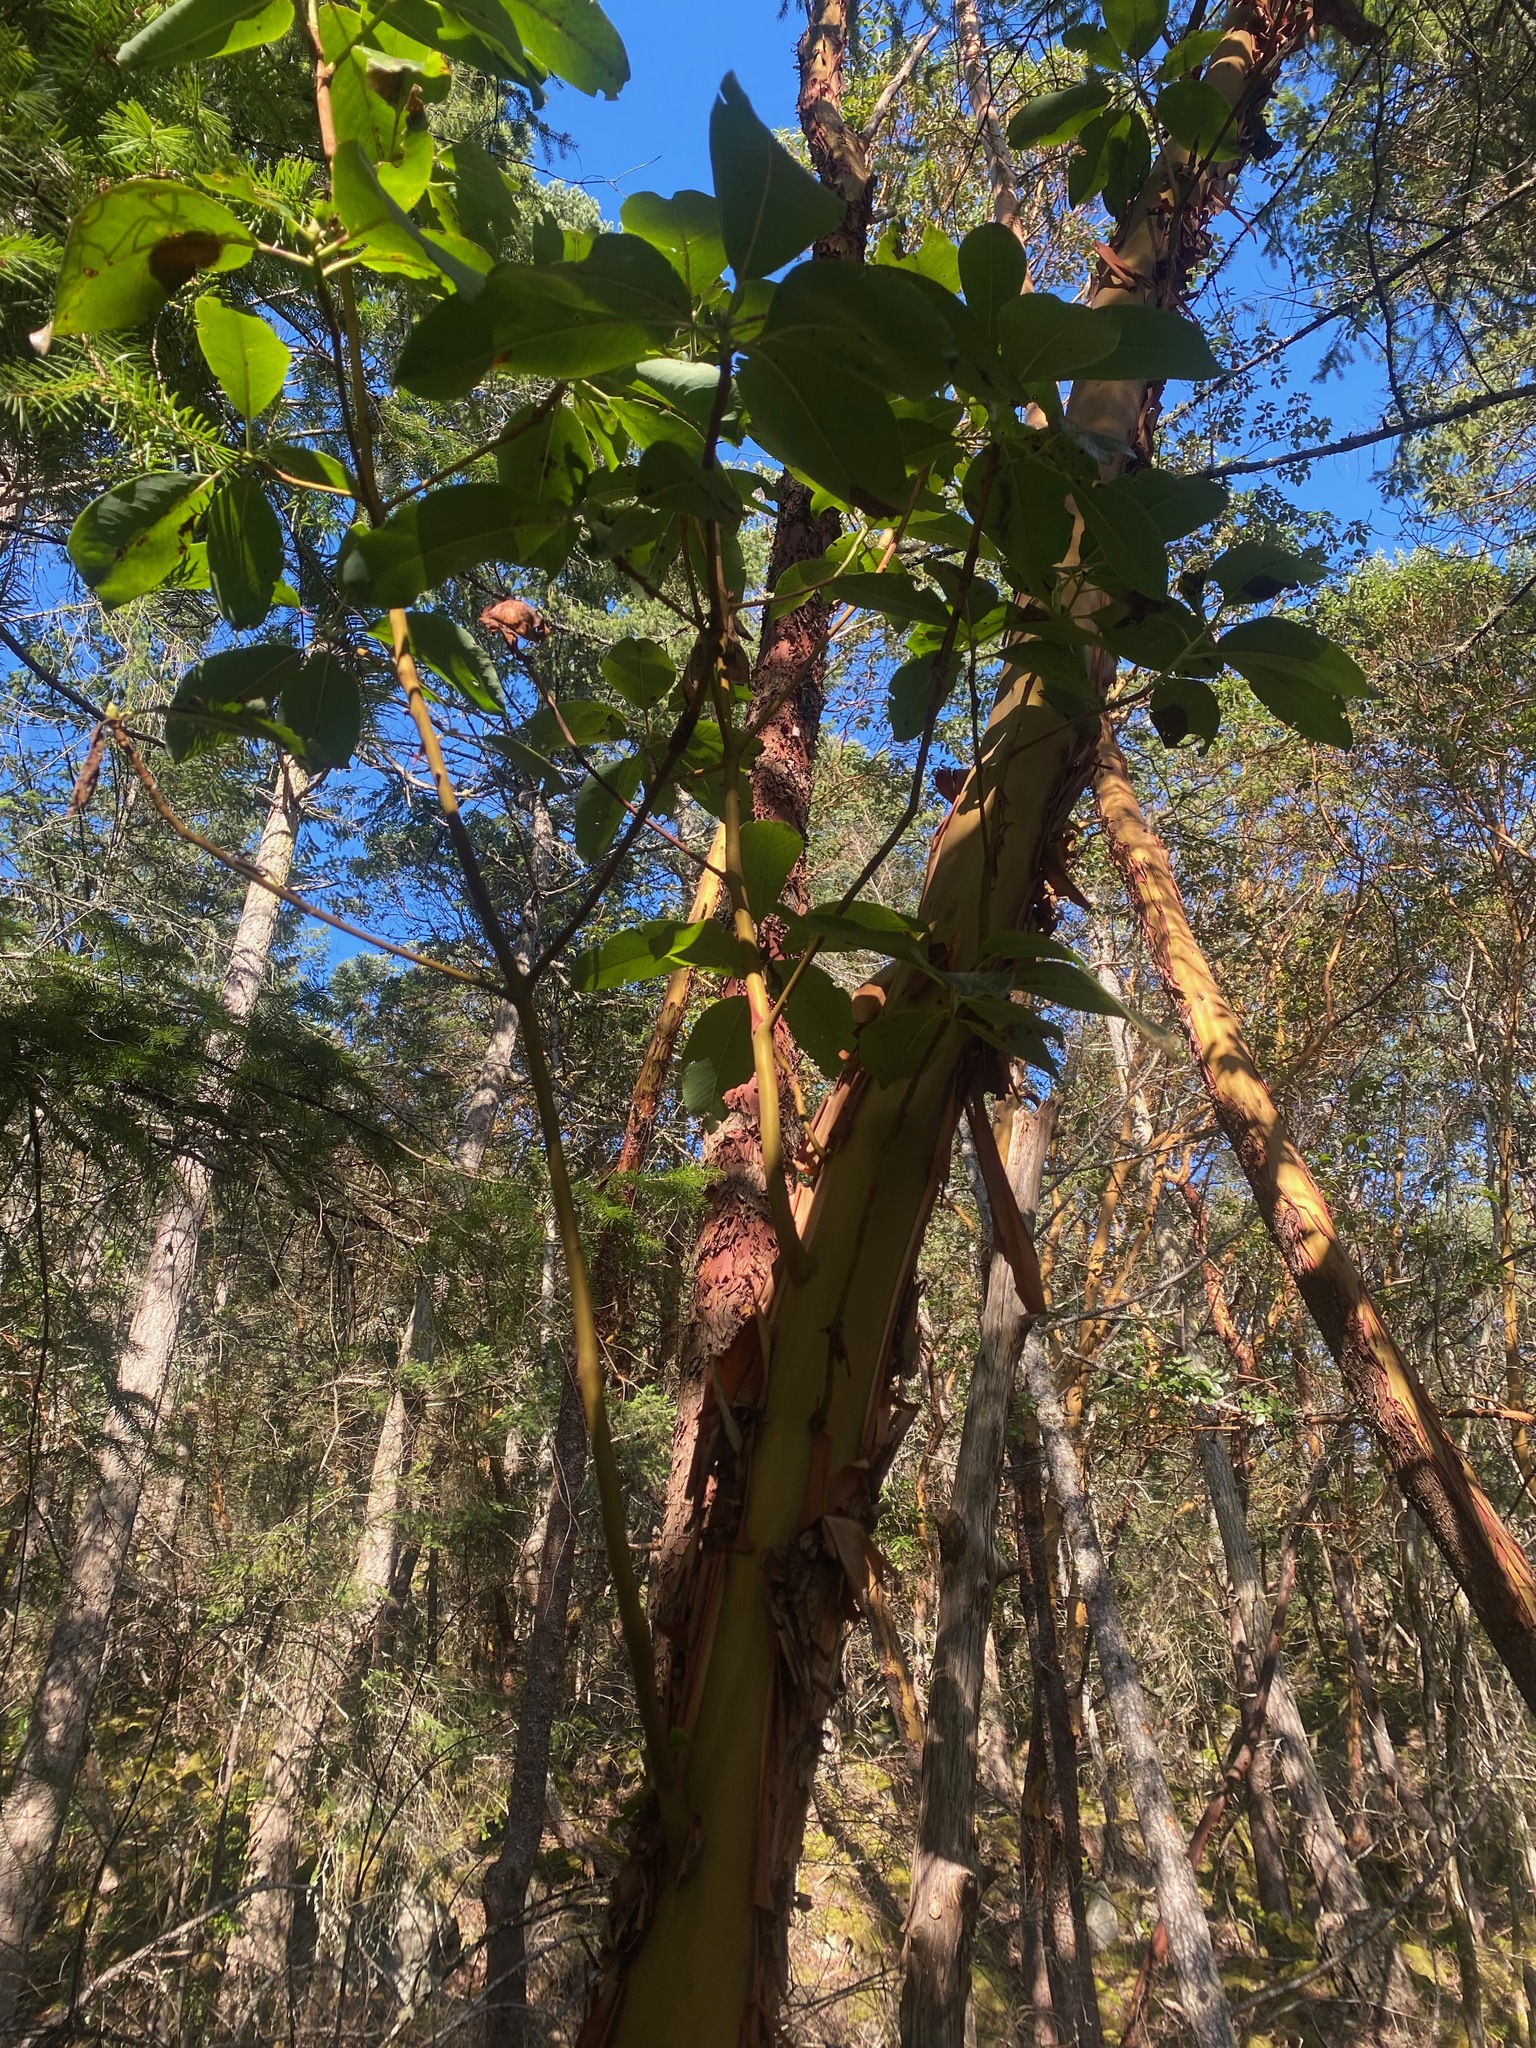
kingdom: Plantae
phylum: Tracheophyta
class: Magnoliopsida
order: Ericales
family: Ericaceae
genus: Arbutus
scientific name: Arbutus menziesii
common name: Pacific madrone
